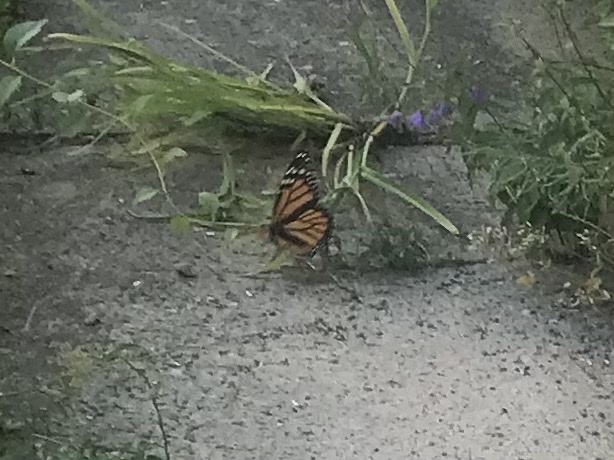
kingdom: Animalia
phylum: Arthropoda
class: Insecta
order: Lepidoptera
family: Nymphalidae
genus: Danaus
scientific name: Danaus plexippus
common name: Monarch
